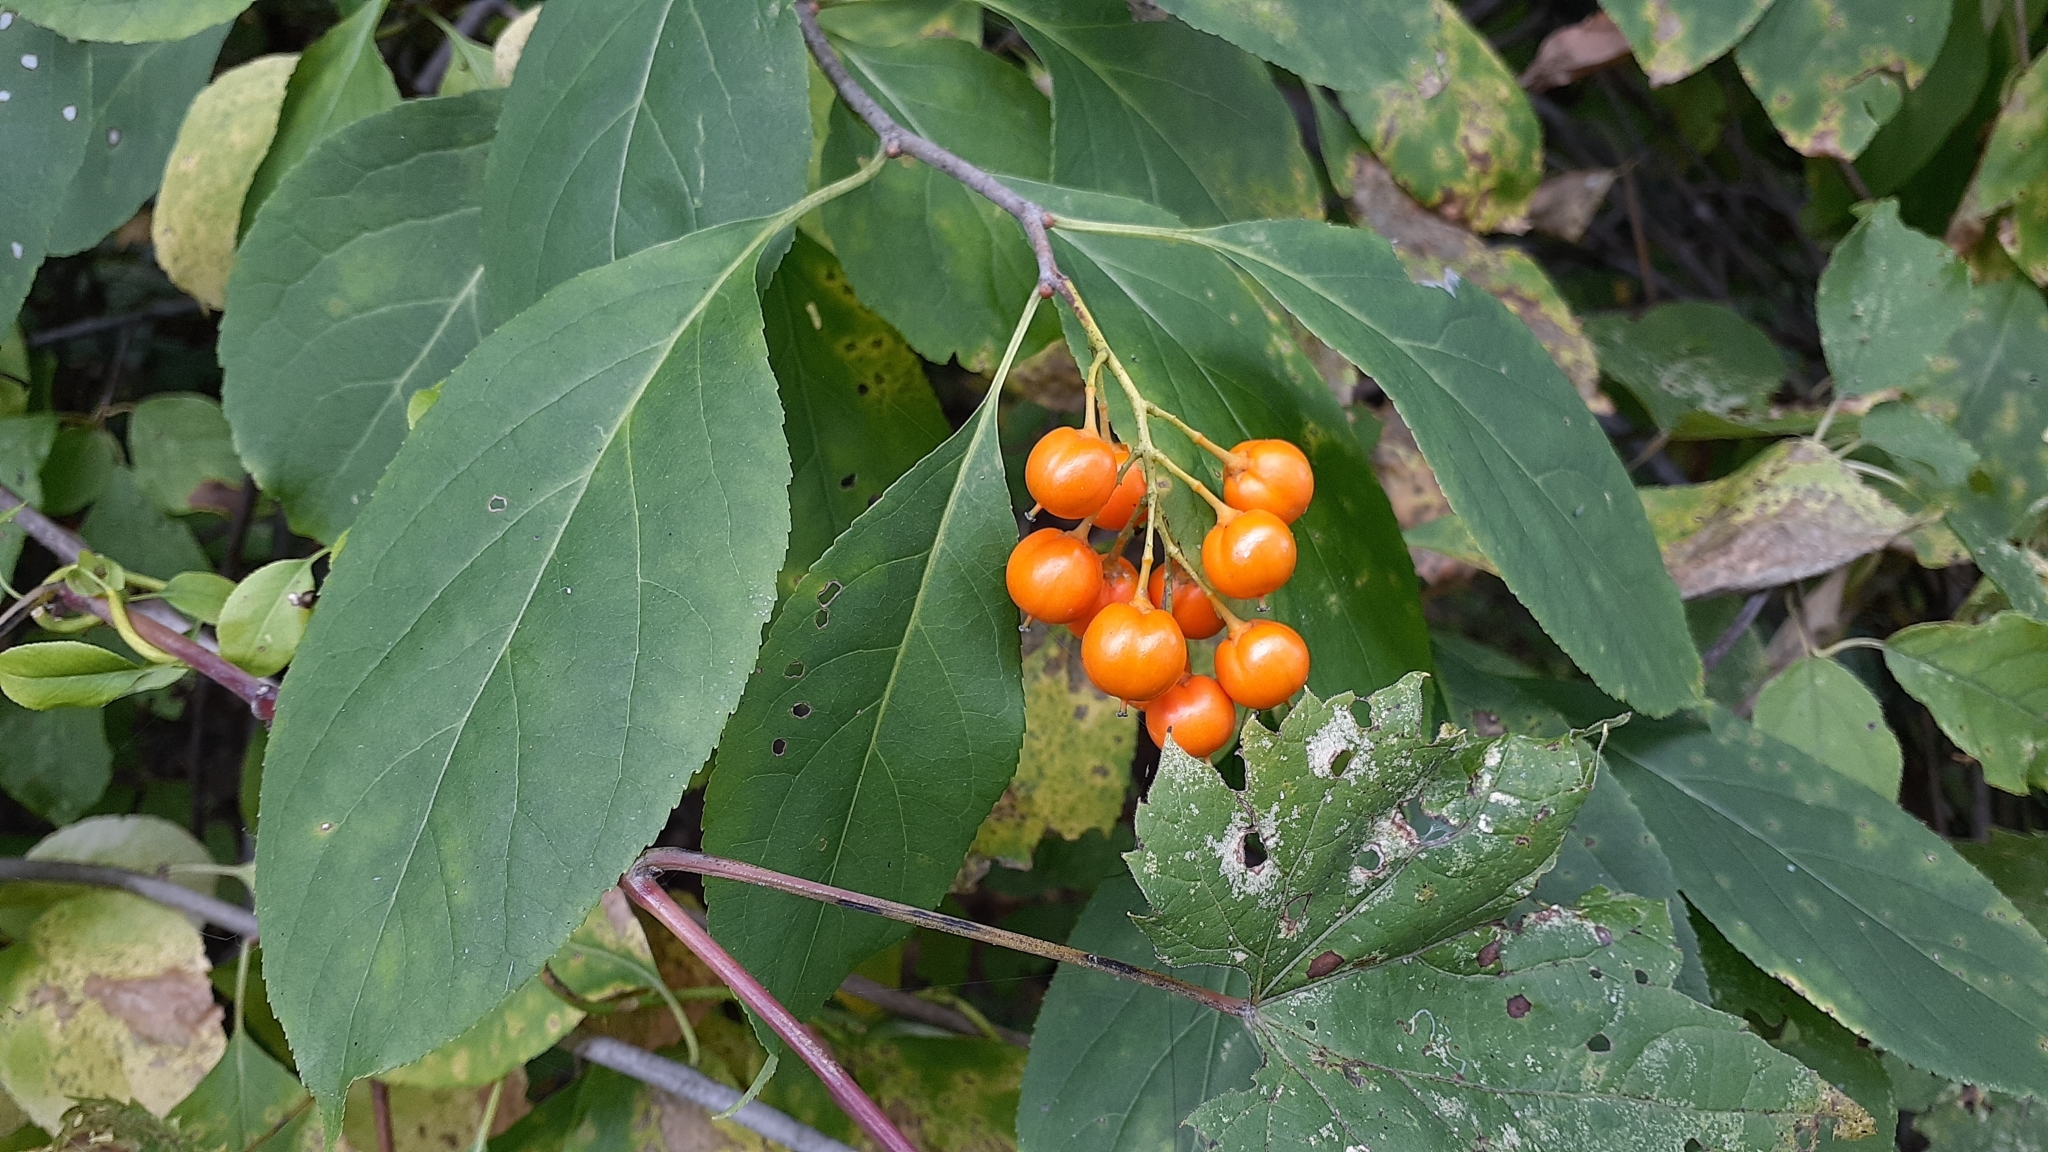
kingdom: Plantae
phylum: Tracheophyta
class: Magnoliopsida
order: Celastrales
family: Celastraceae
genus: Celastrus
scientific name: Celastrus scandens
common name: American bittersweet
